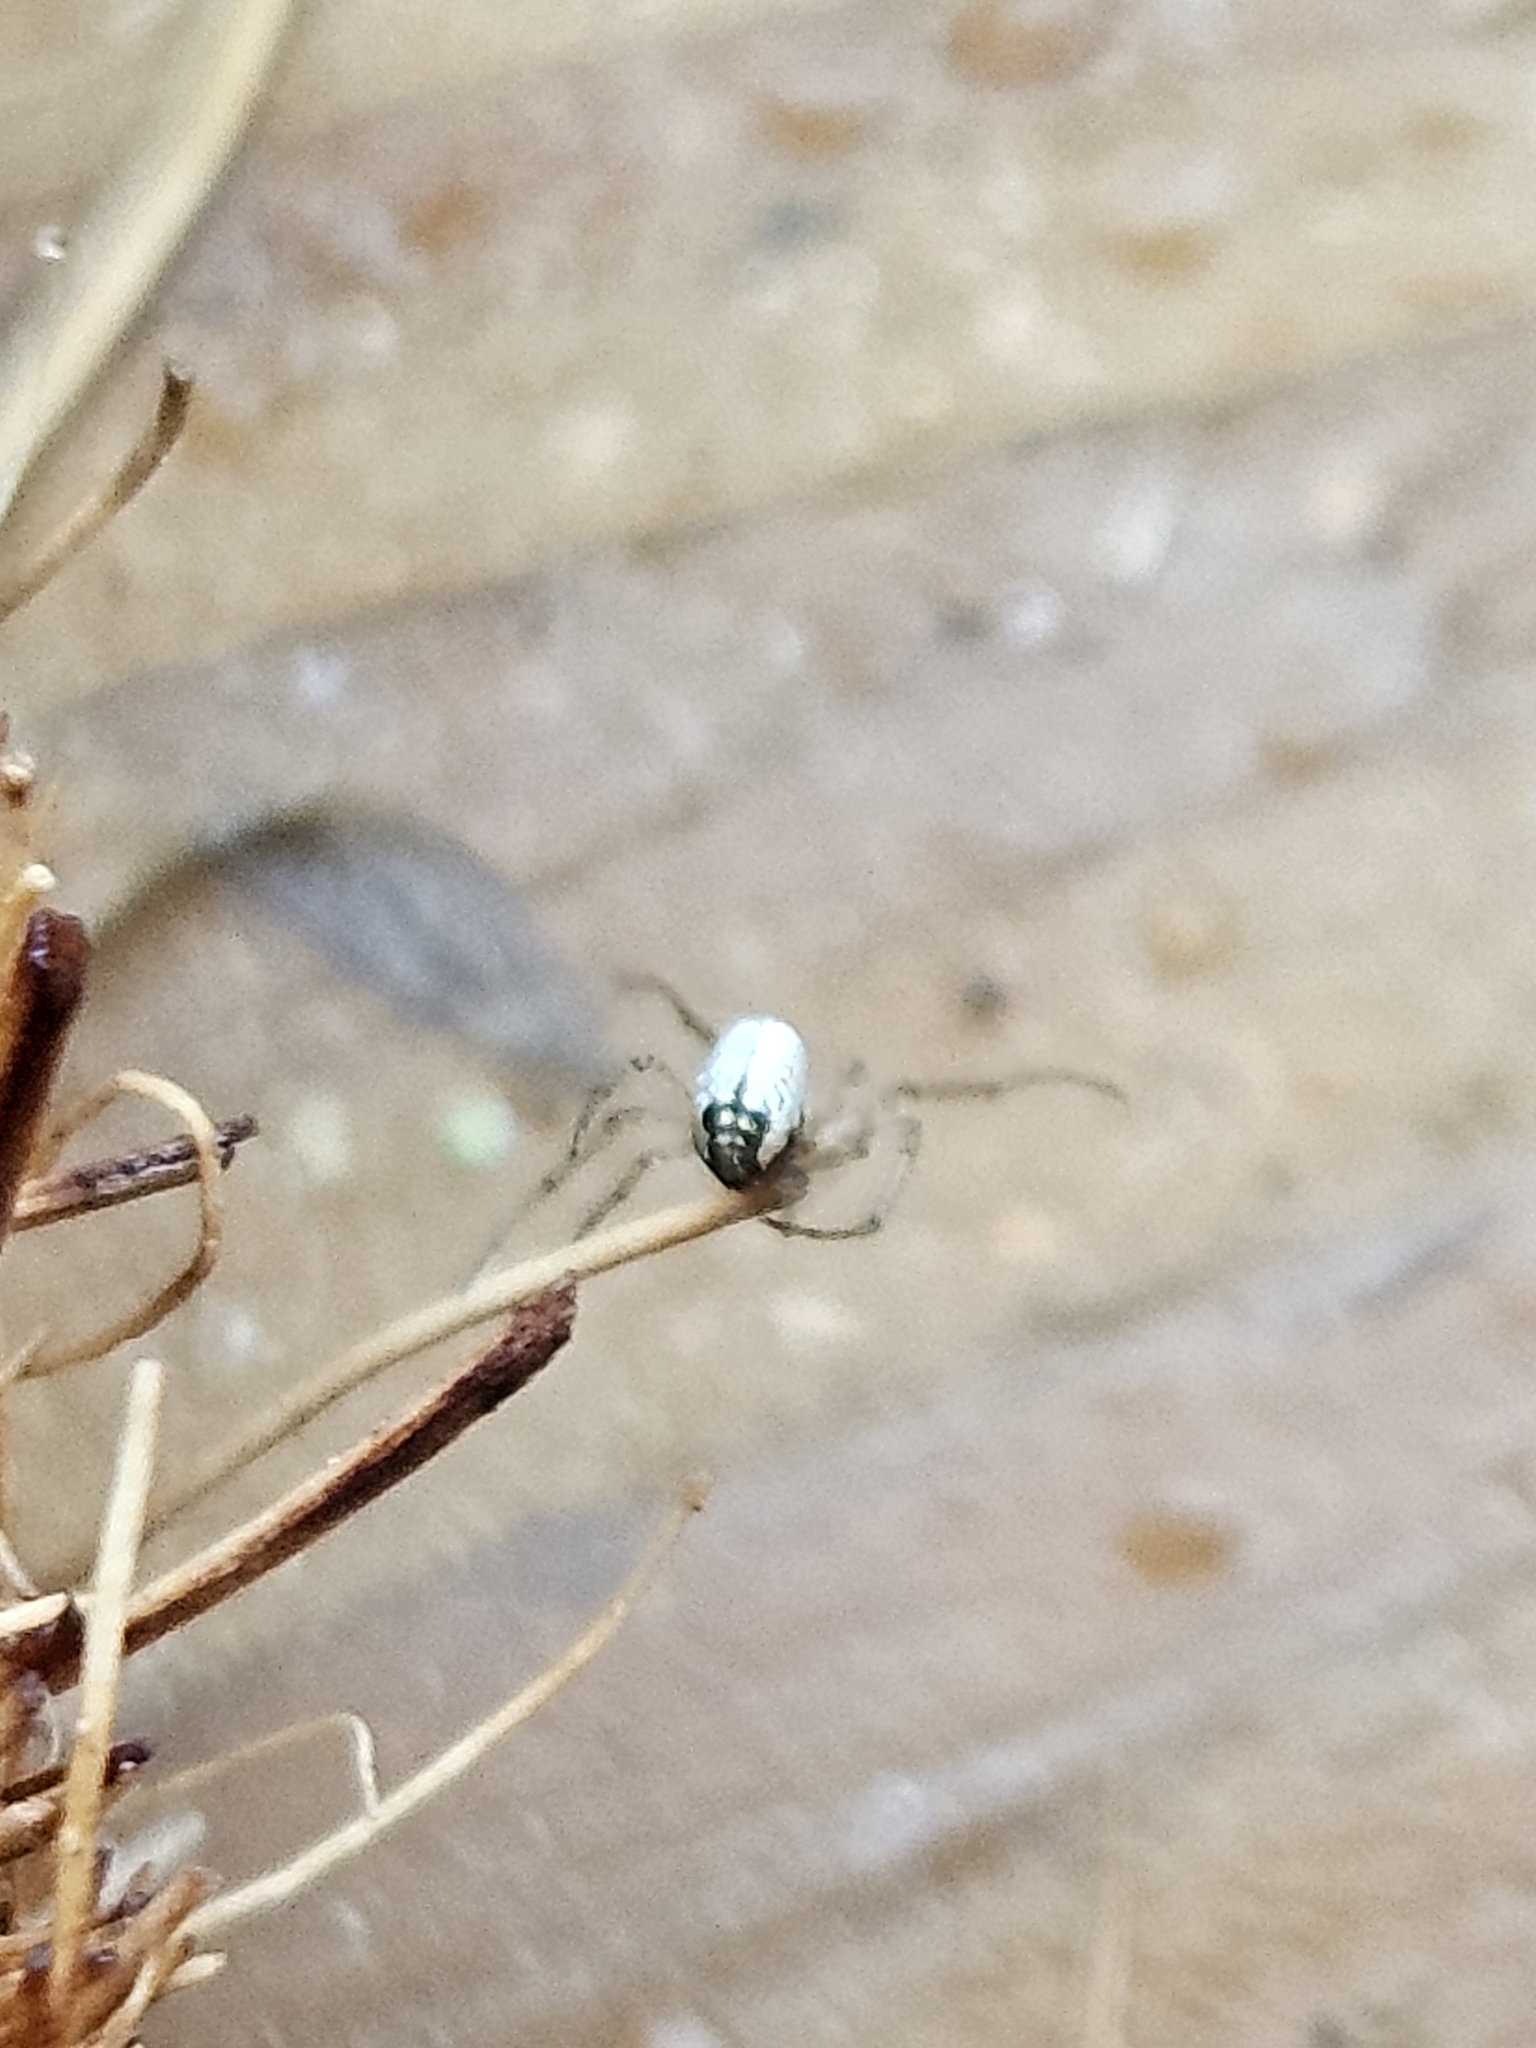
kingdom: Animalia
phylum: Arthropoda
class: Arachnida
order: Araneae
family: Tetragnathidae
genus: Leucauge
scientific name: Leucauge venusta
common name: Longjawed orb weavers
